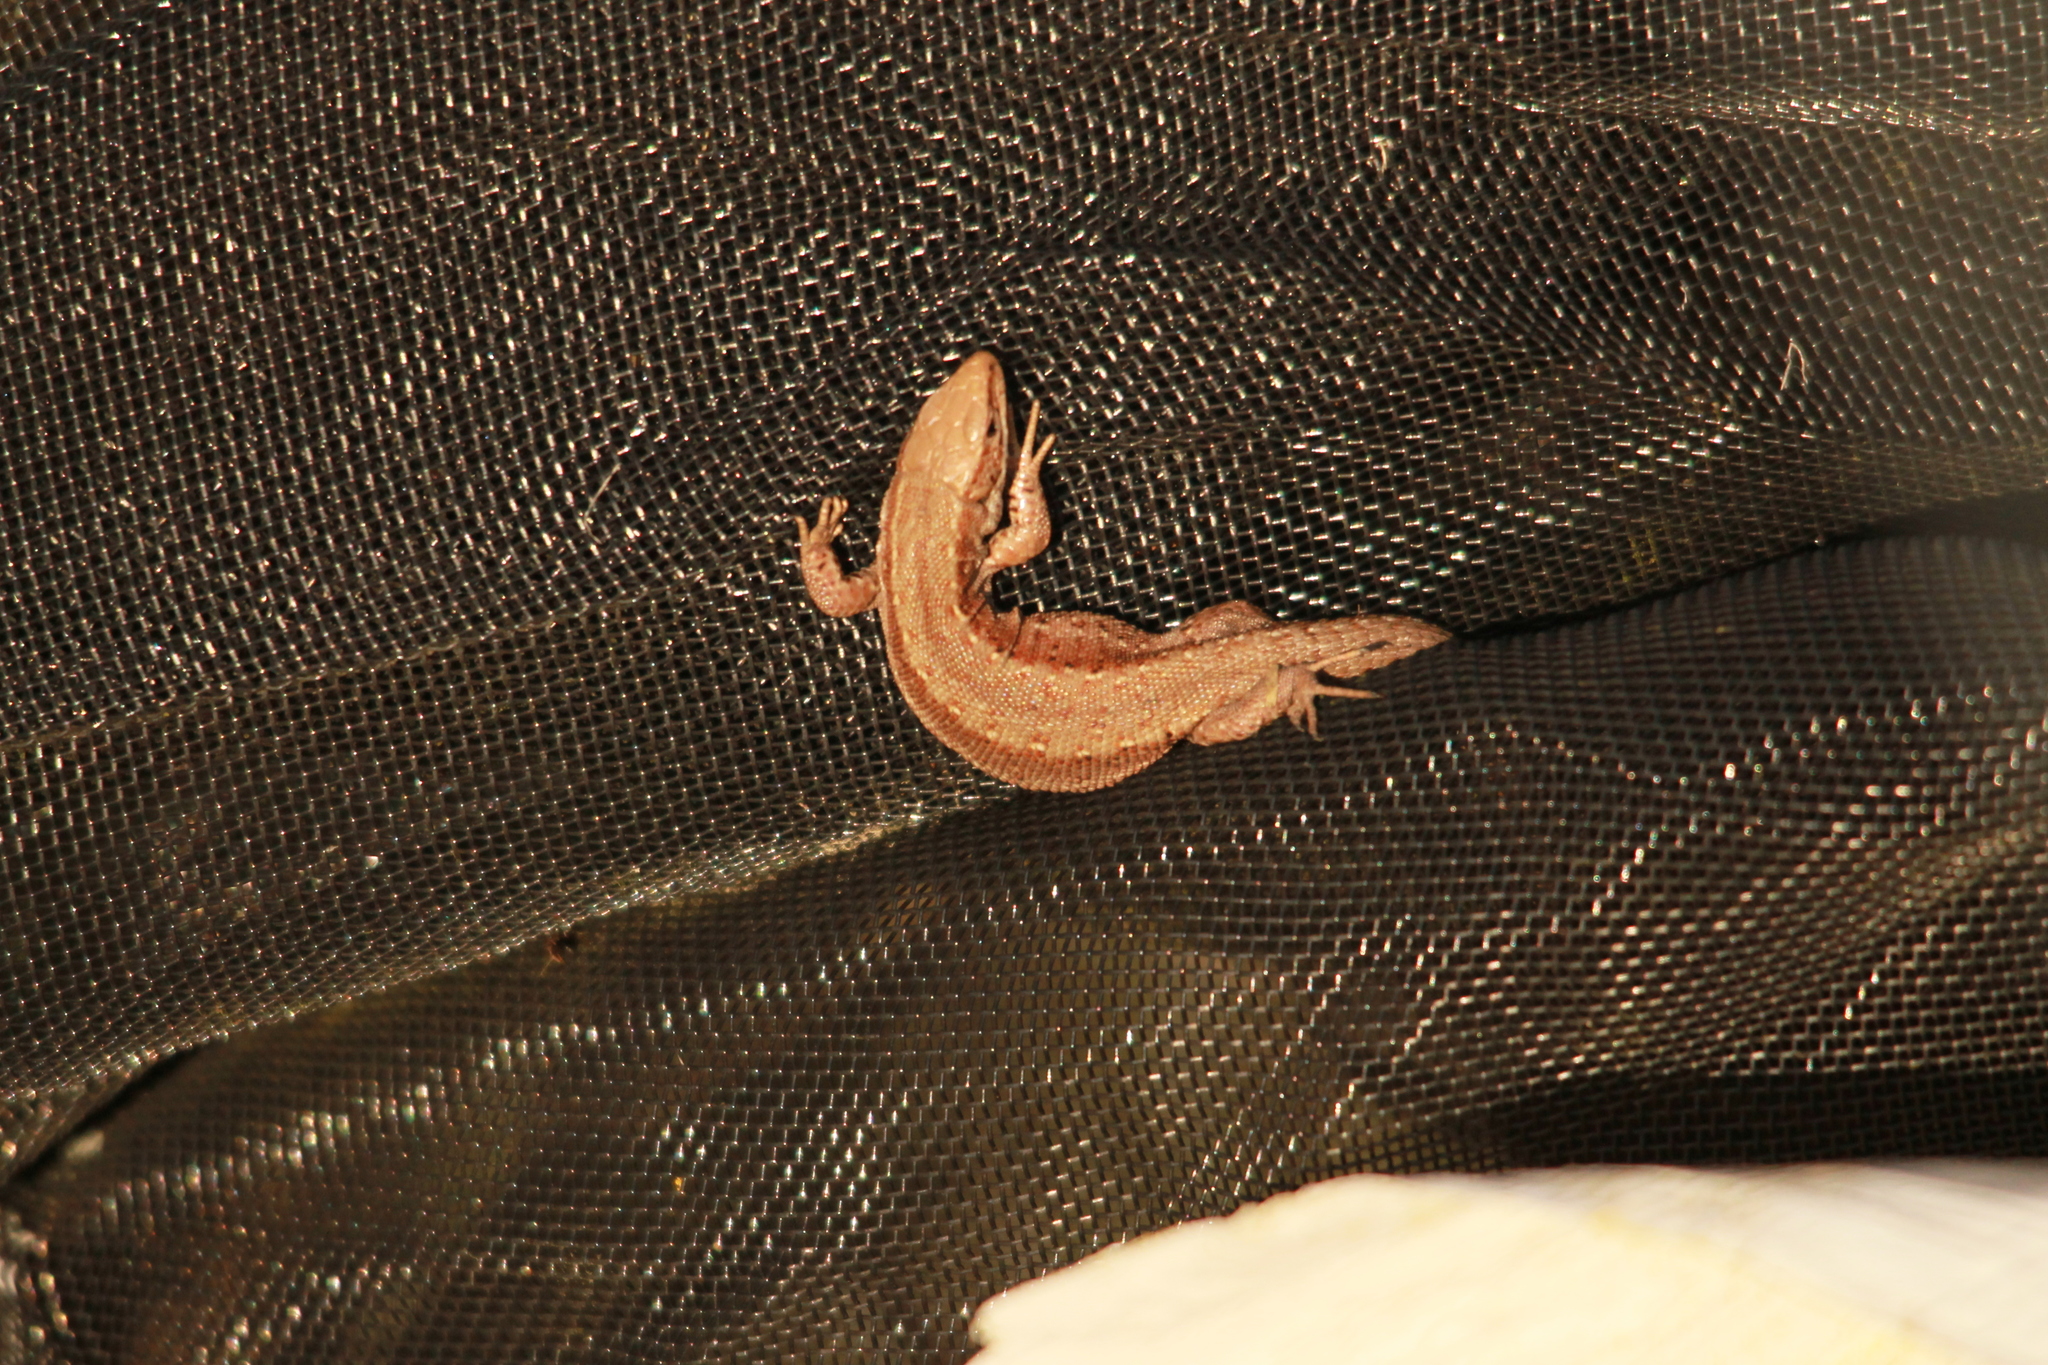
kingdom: Animalia
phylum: Chordata
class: Squamata
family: Lacertidae
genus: Zootoca
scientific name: Zootoca vivipara
